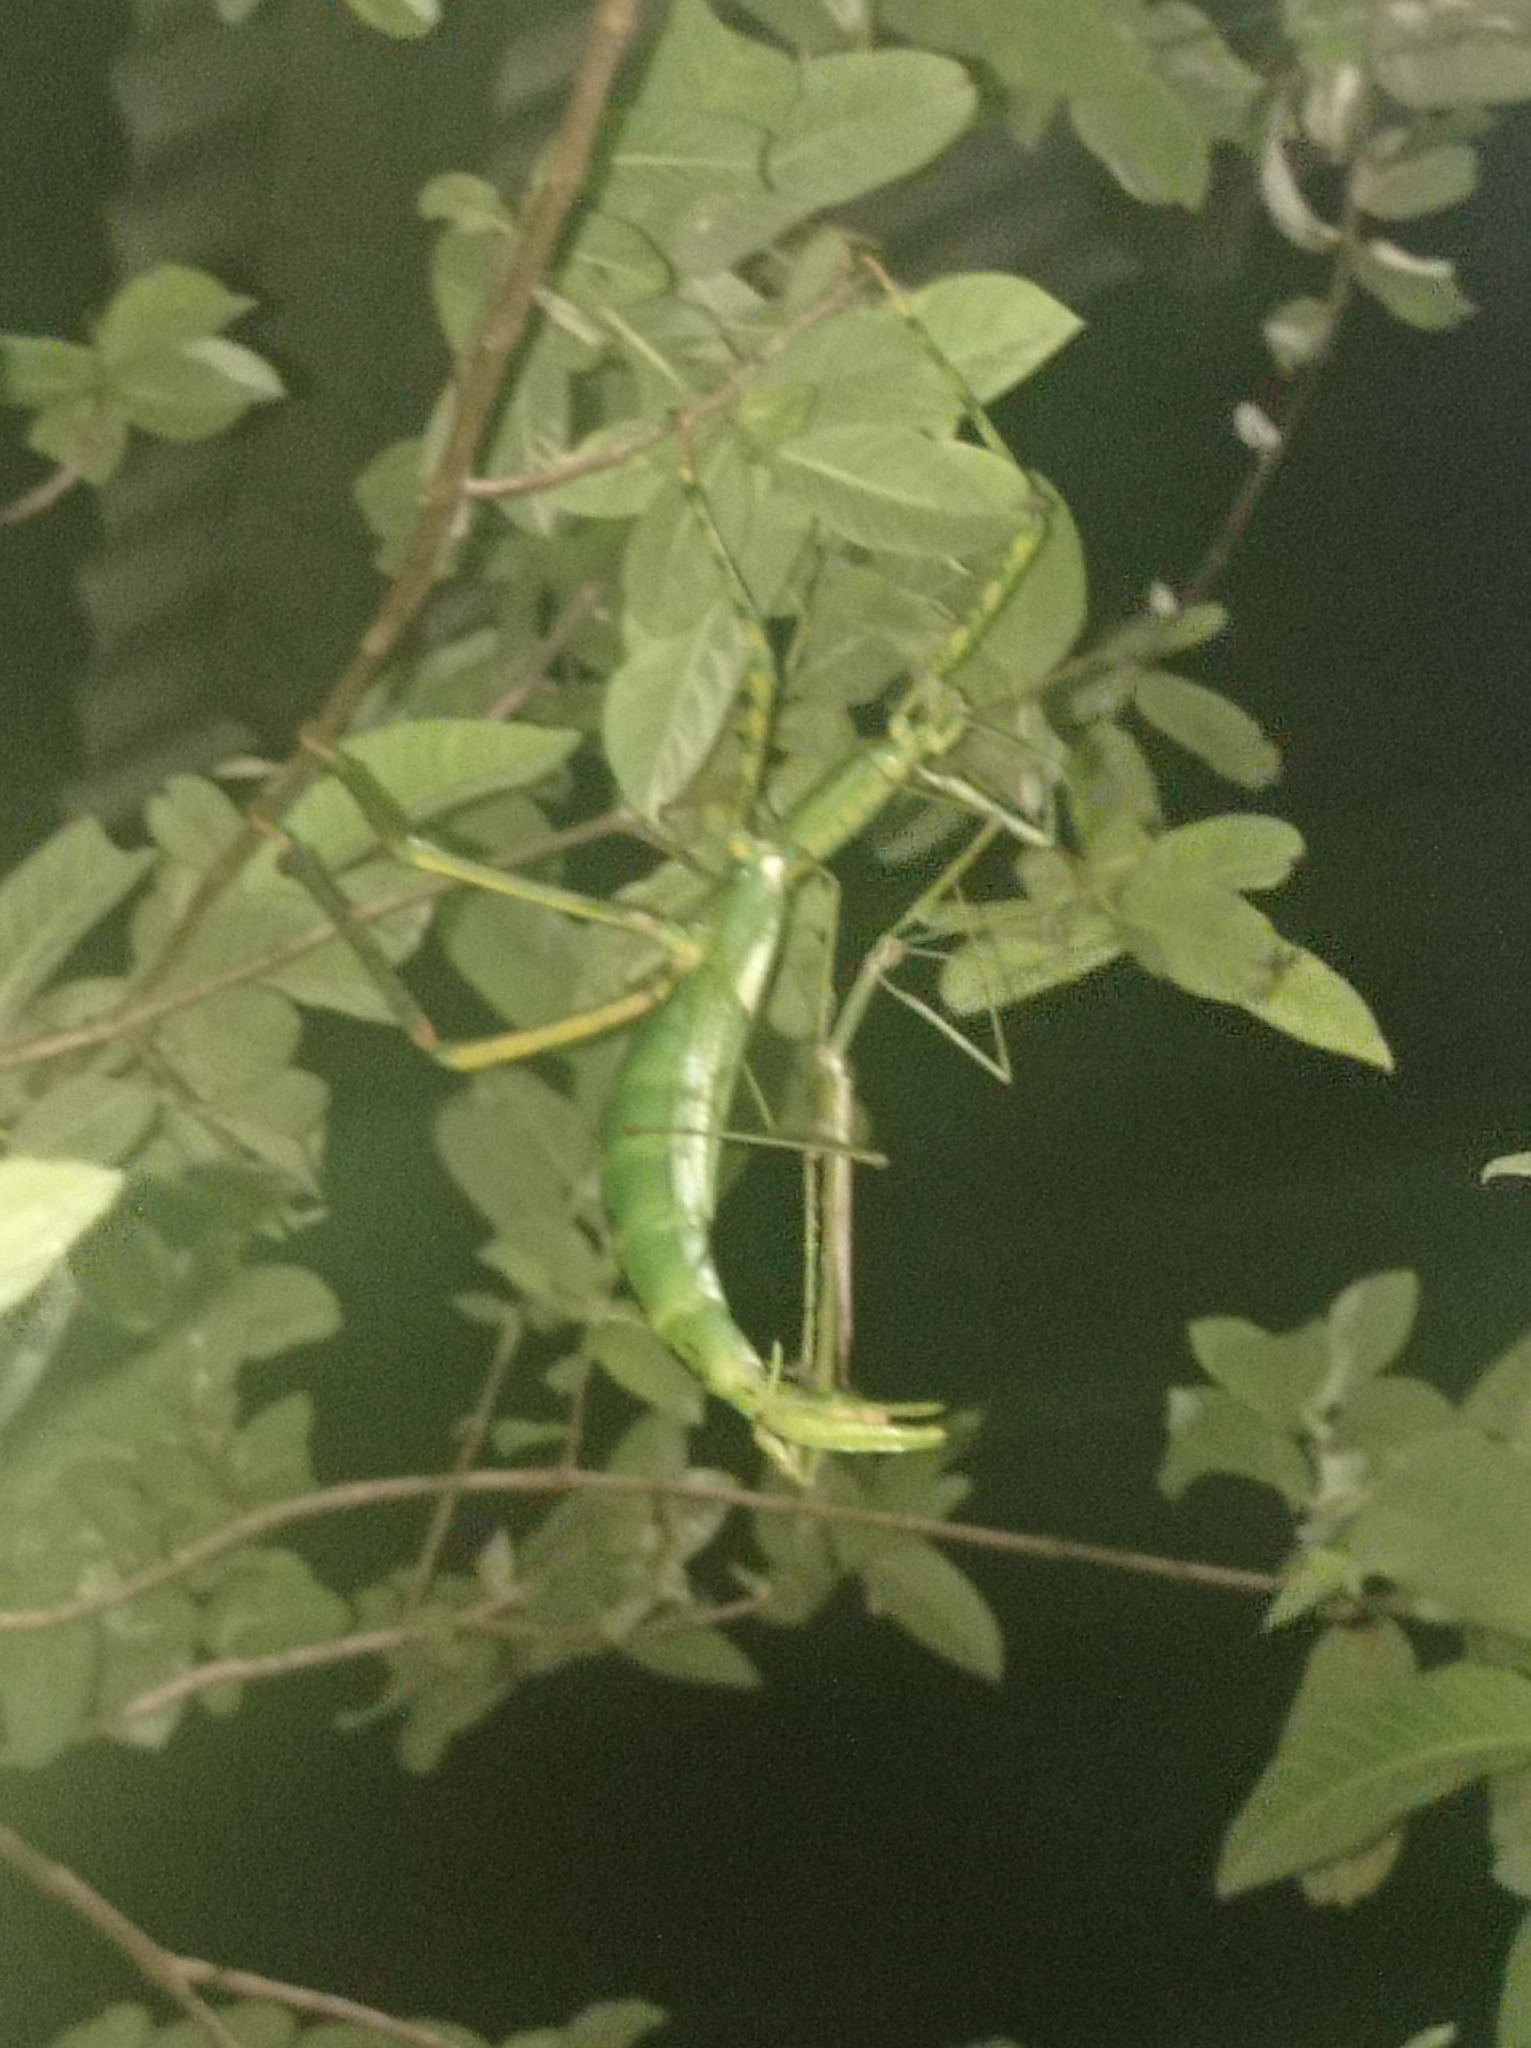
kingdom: Animalia
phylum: Arthropoda
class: Insecta
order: Phasmida
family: Phasmatidae
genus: Eurycnema
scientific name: Eurycnema versirubra
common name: Red-winged green giant stick-insect
